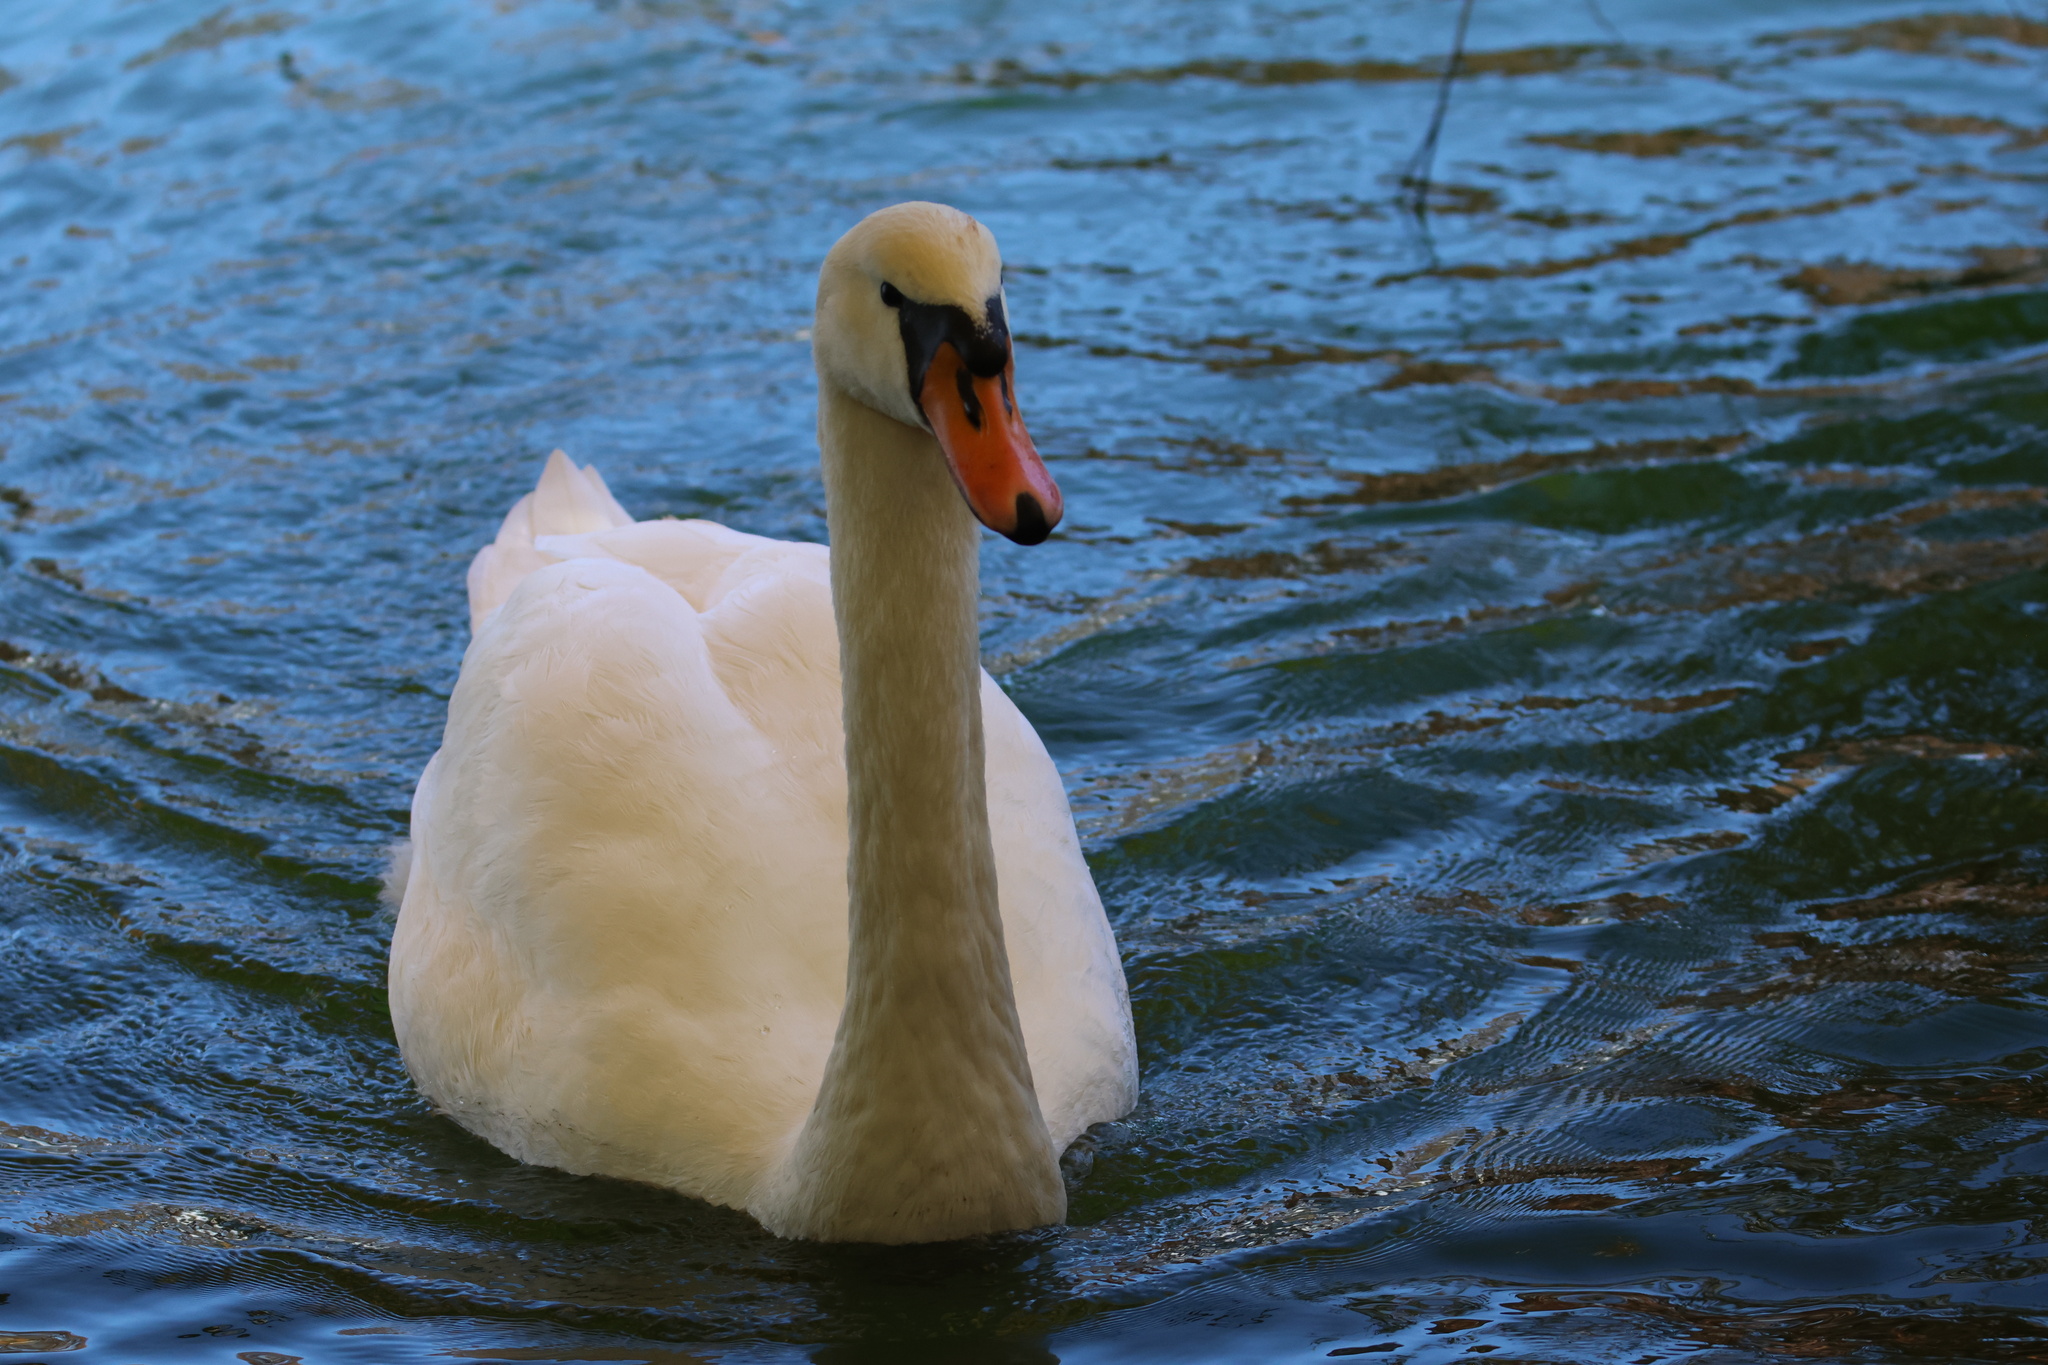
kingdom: Animalia
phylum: Chordata
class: Aves
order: Anseriformes
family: Anatidae
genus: Cygnus
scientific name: Cygnus olor
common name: Mute swan
